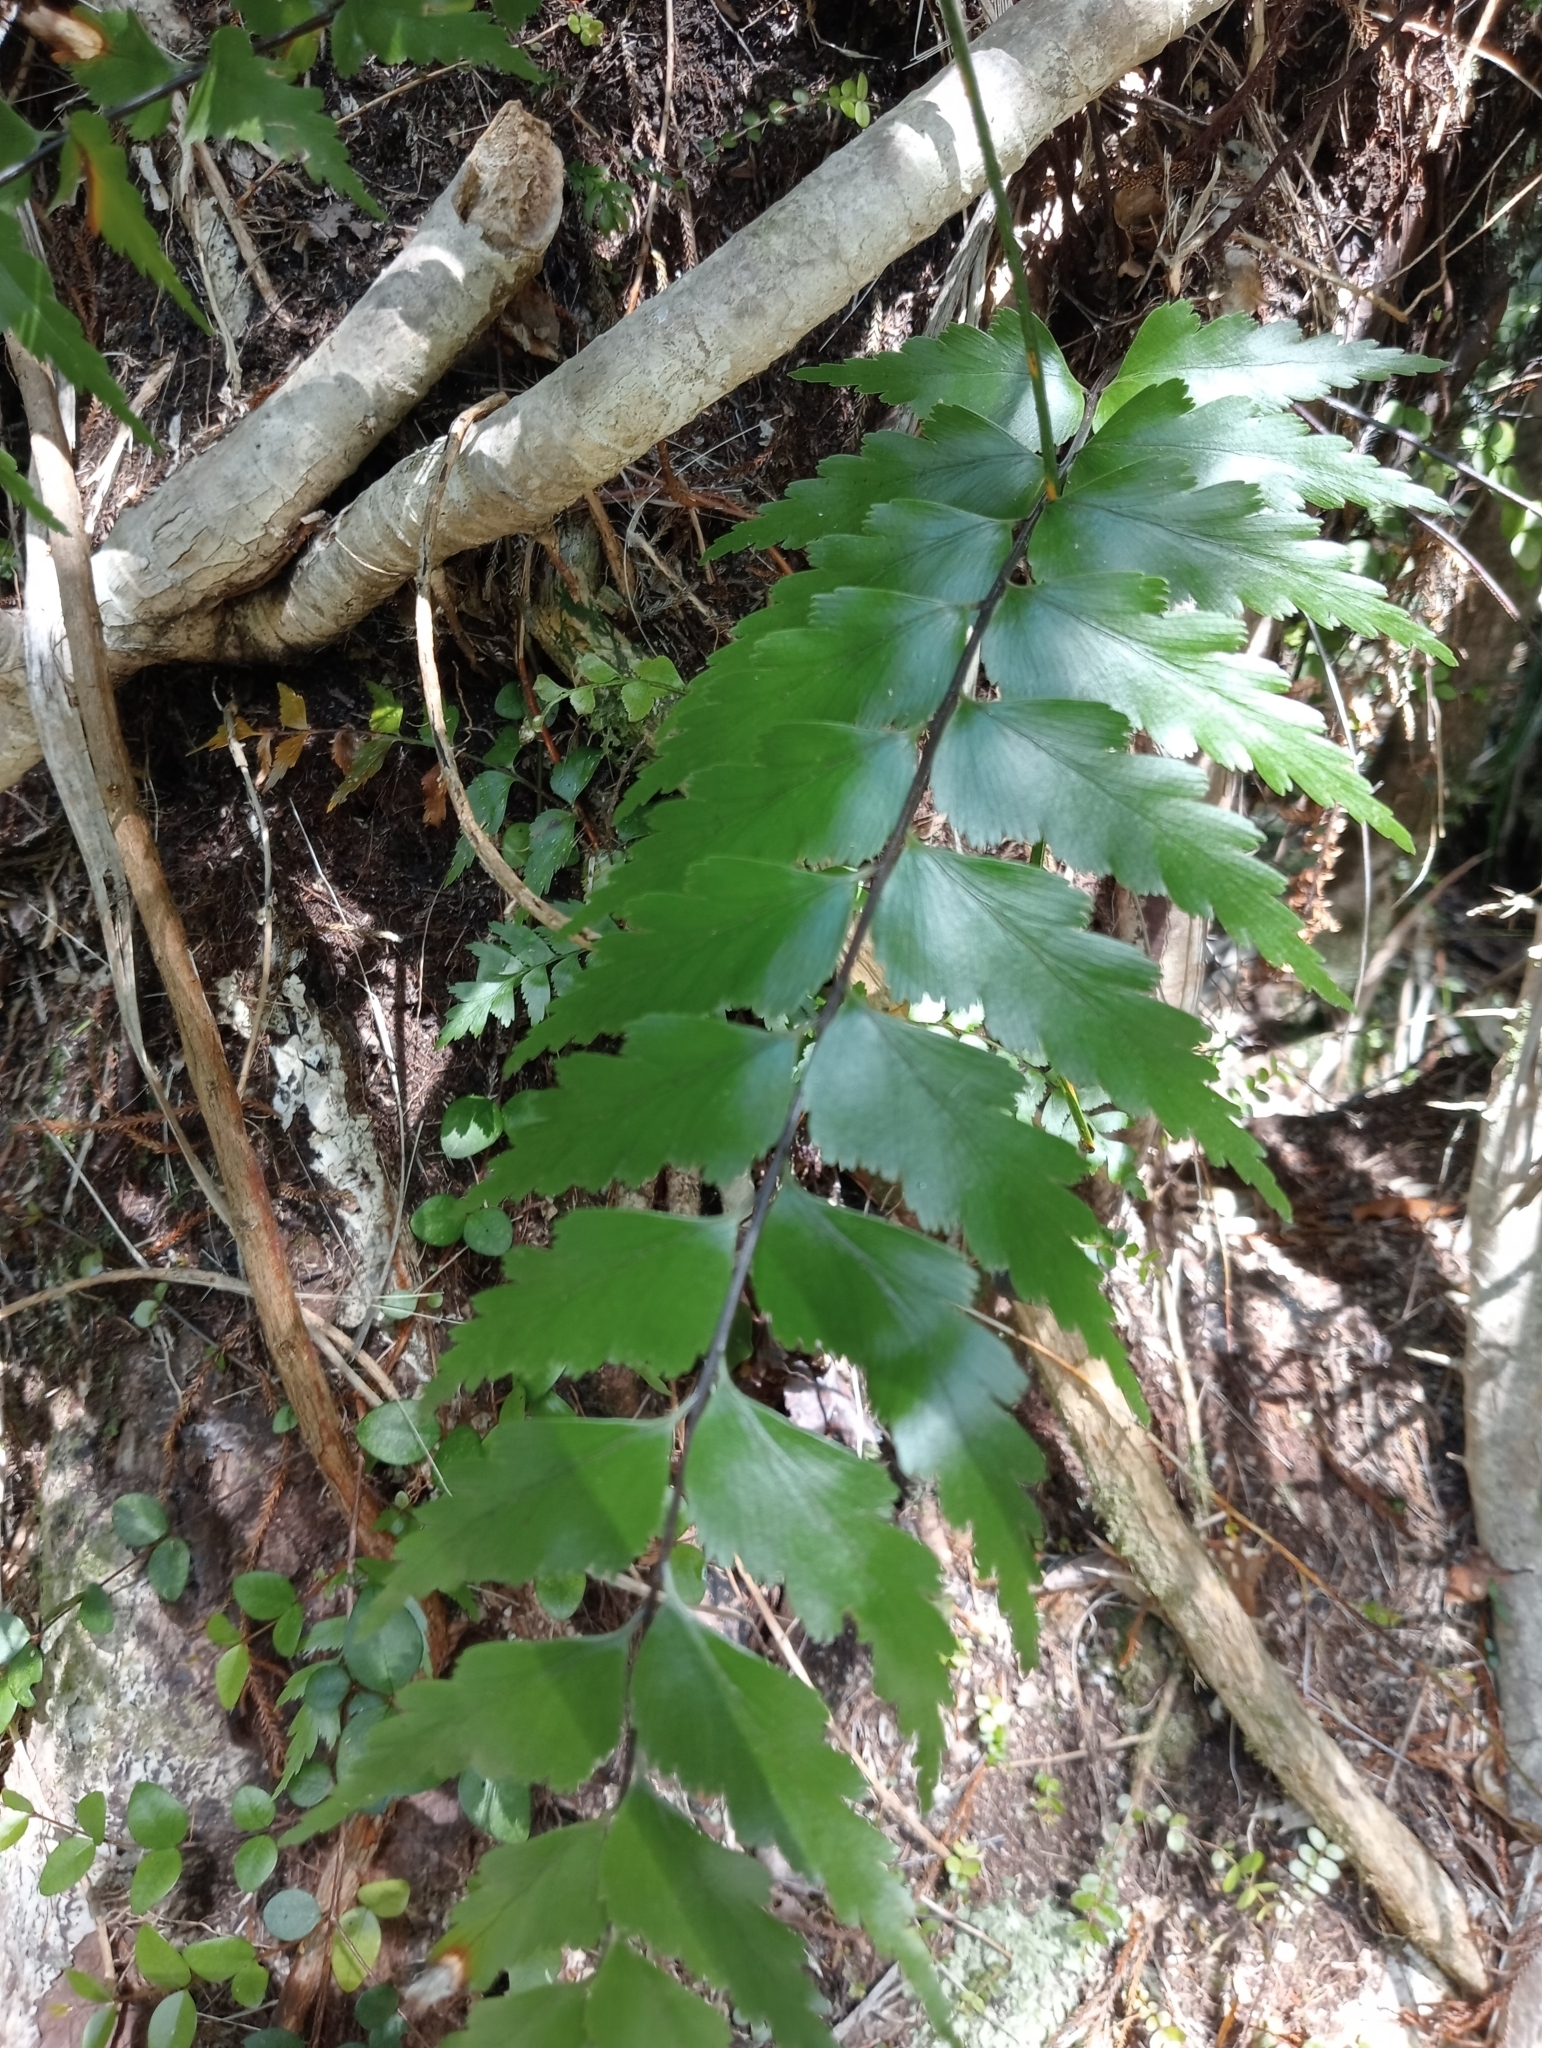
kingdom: Plantae
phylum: Tracheophyta
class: Polypodiopsida
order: Polypodiales
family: Aspleniaceae
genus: Asplenium
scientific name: Asplenium polyodon
